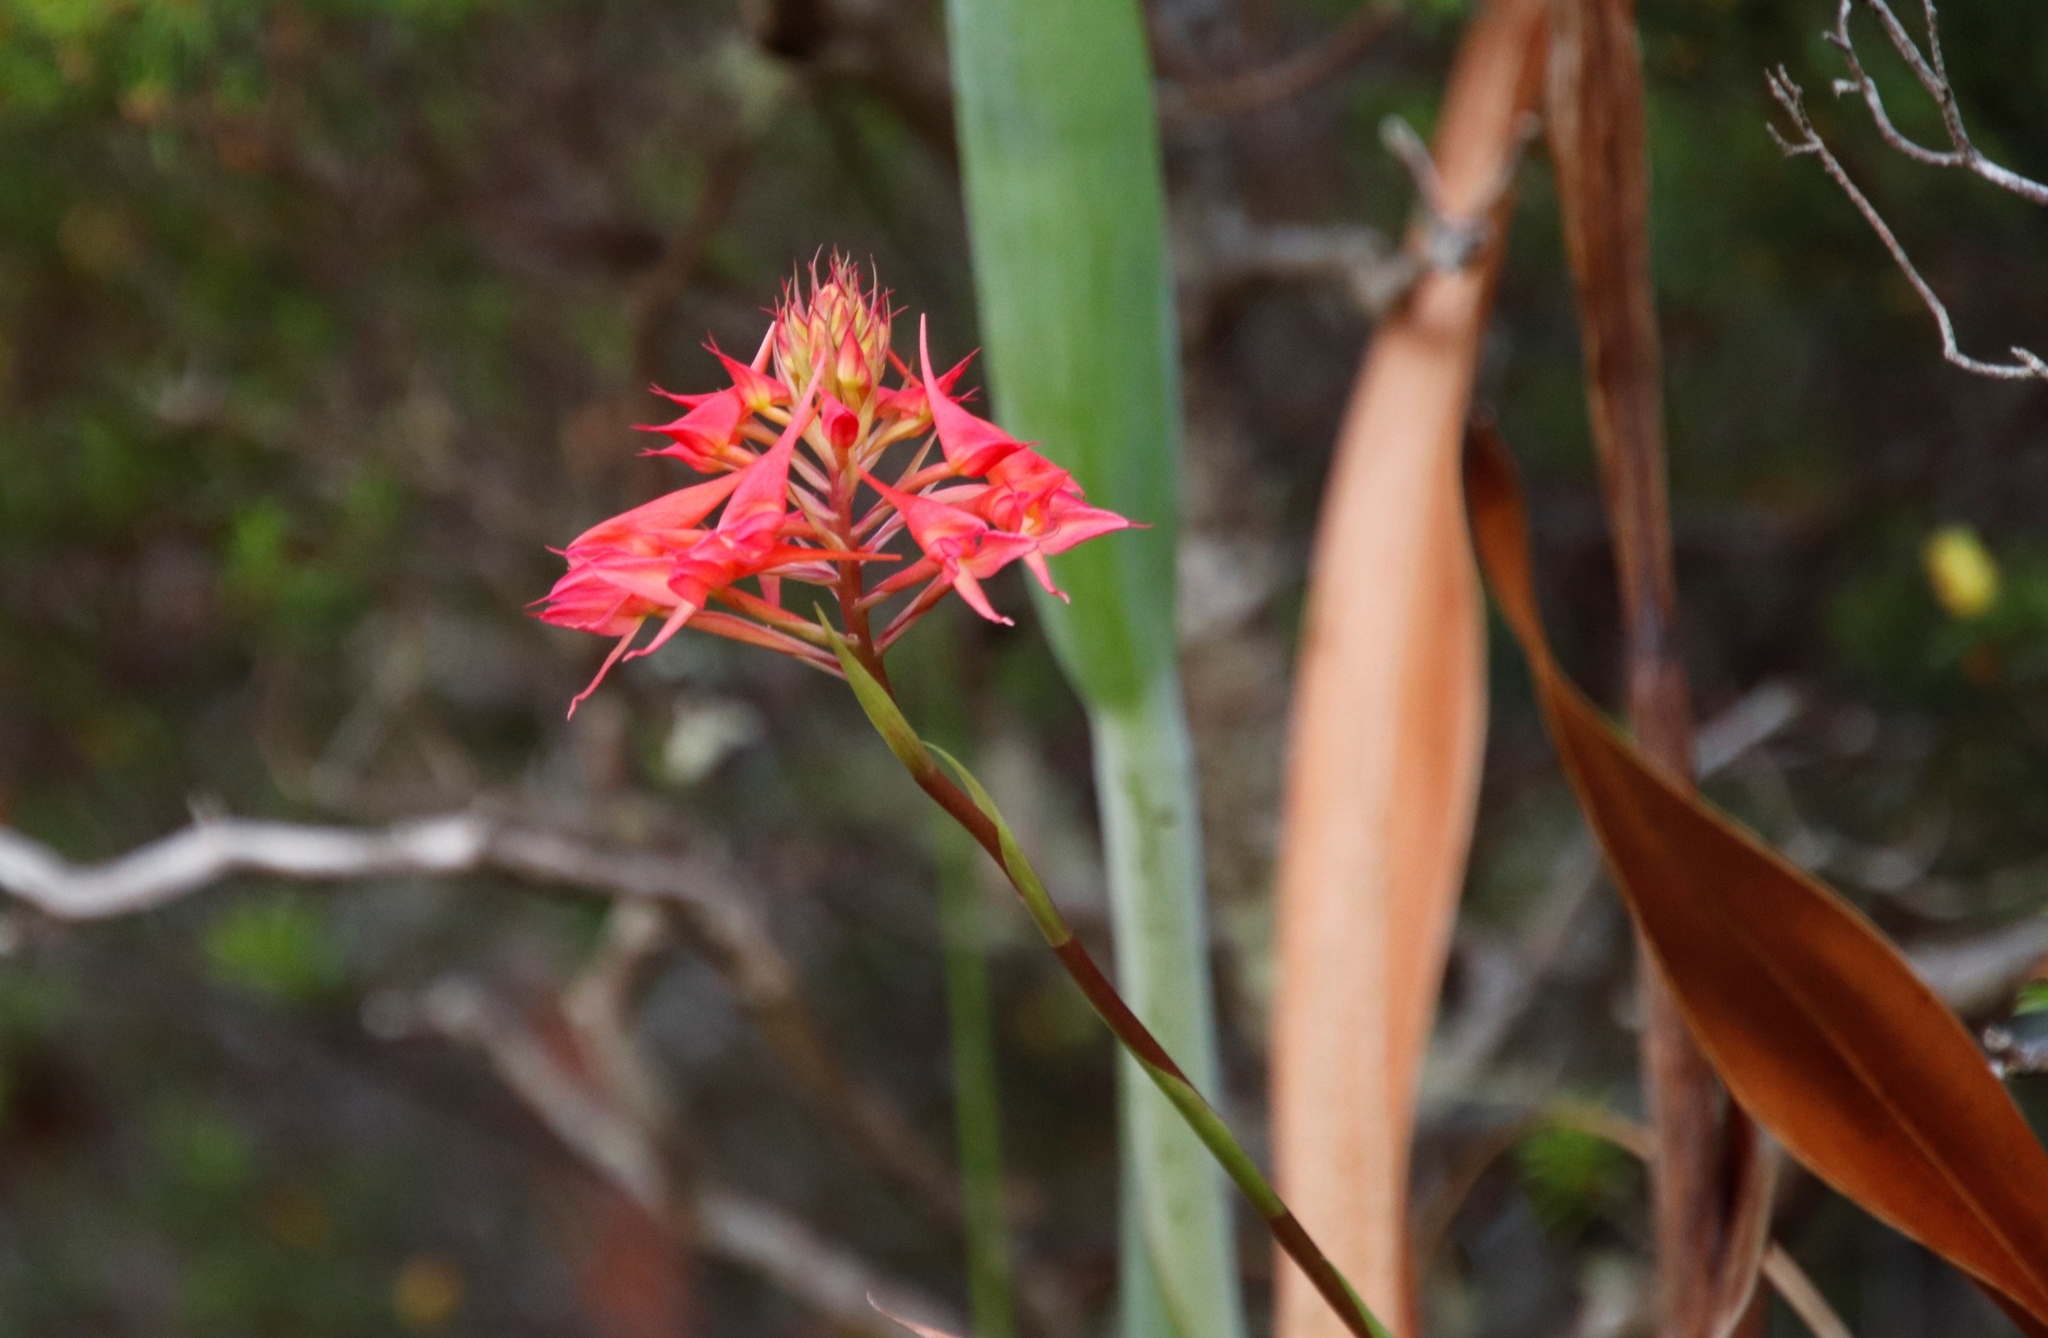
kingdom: Plantae
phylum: Tracheophyta
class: Liliopsida
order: Asparagales
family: Orchidaceae
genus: Disa
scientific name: Disa ferruginea
